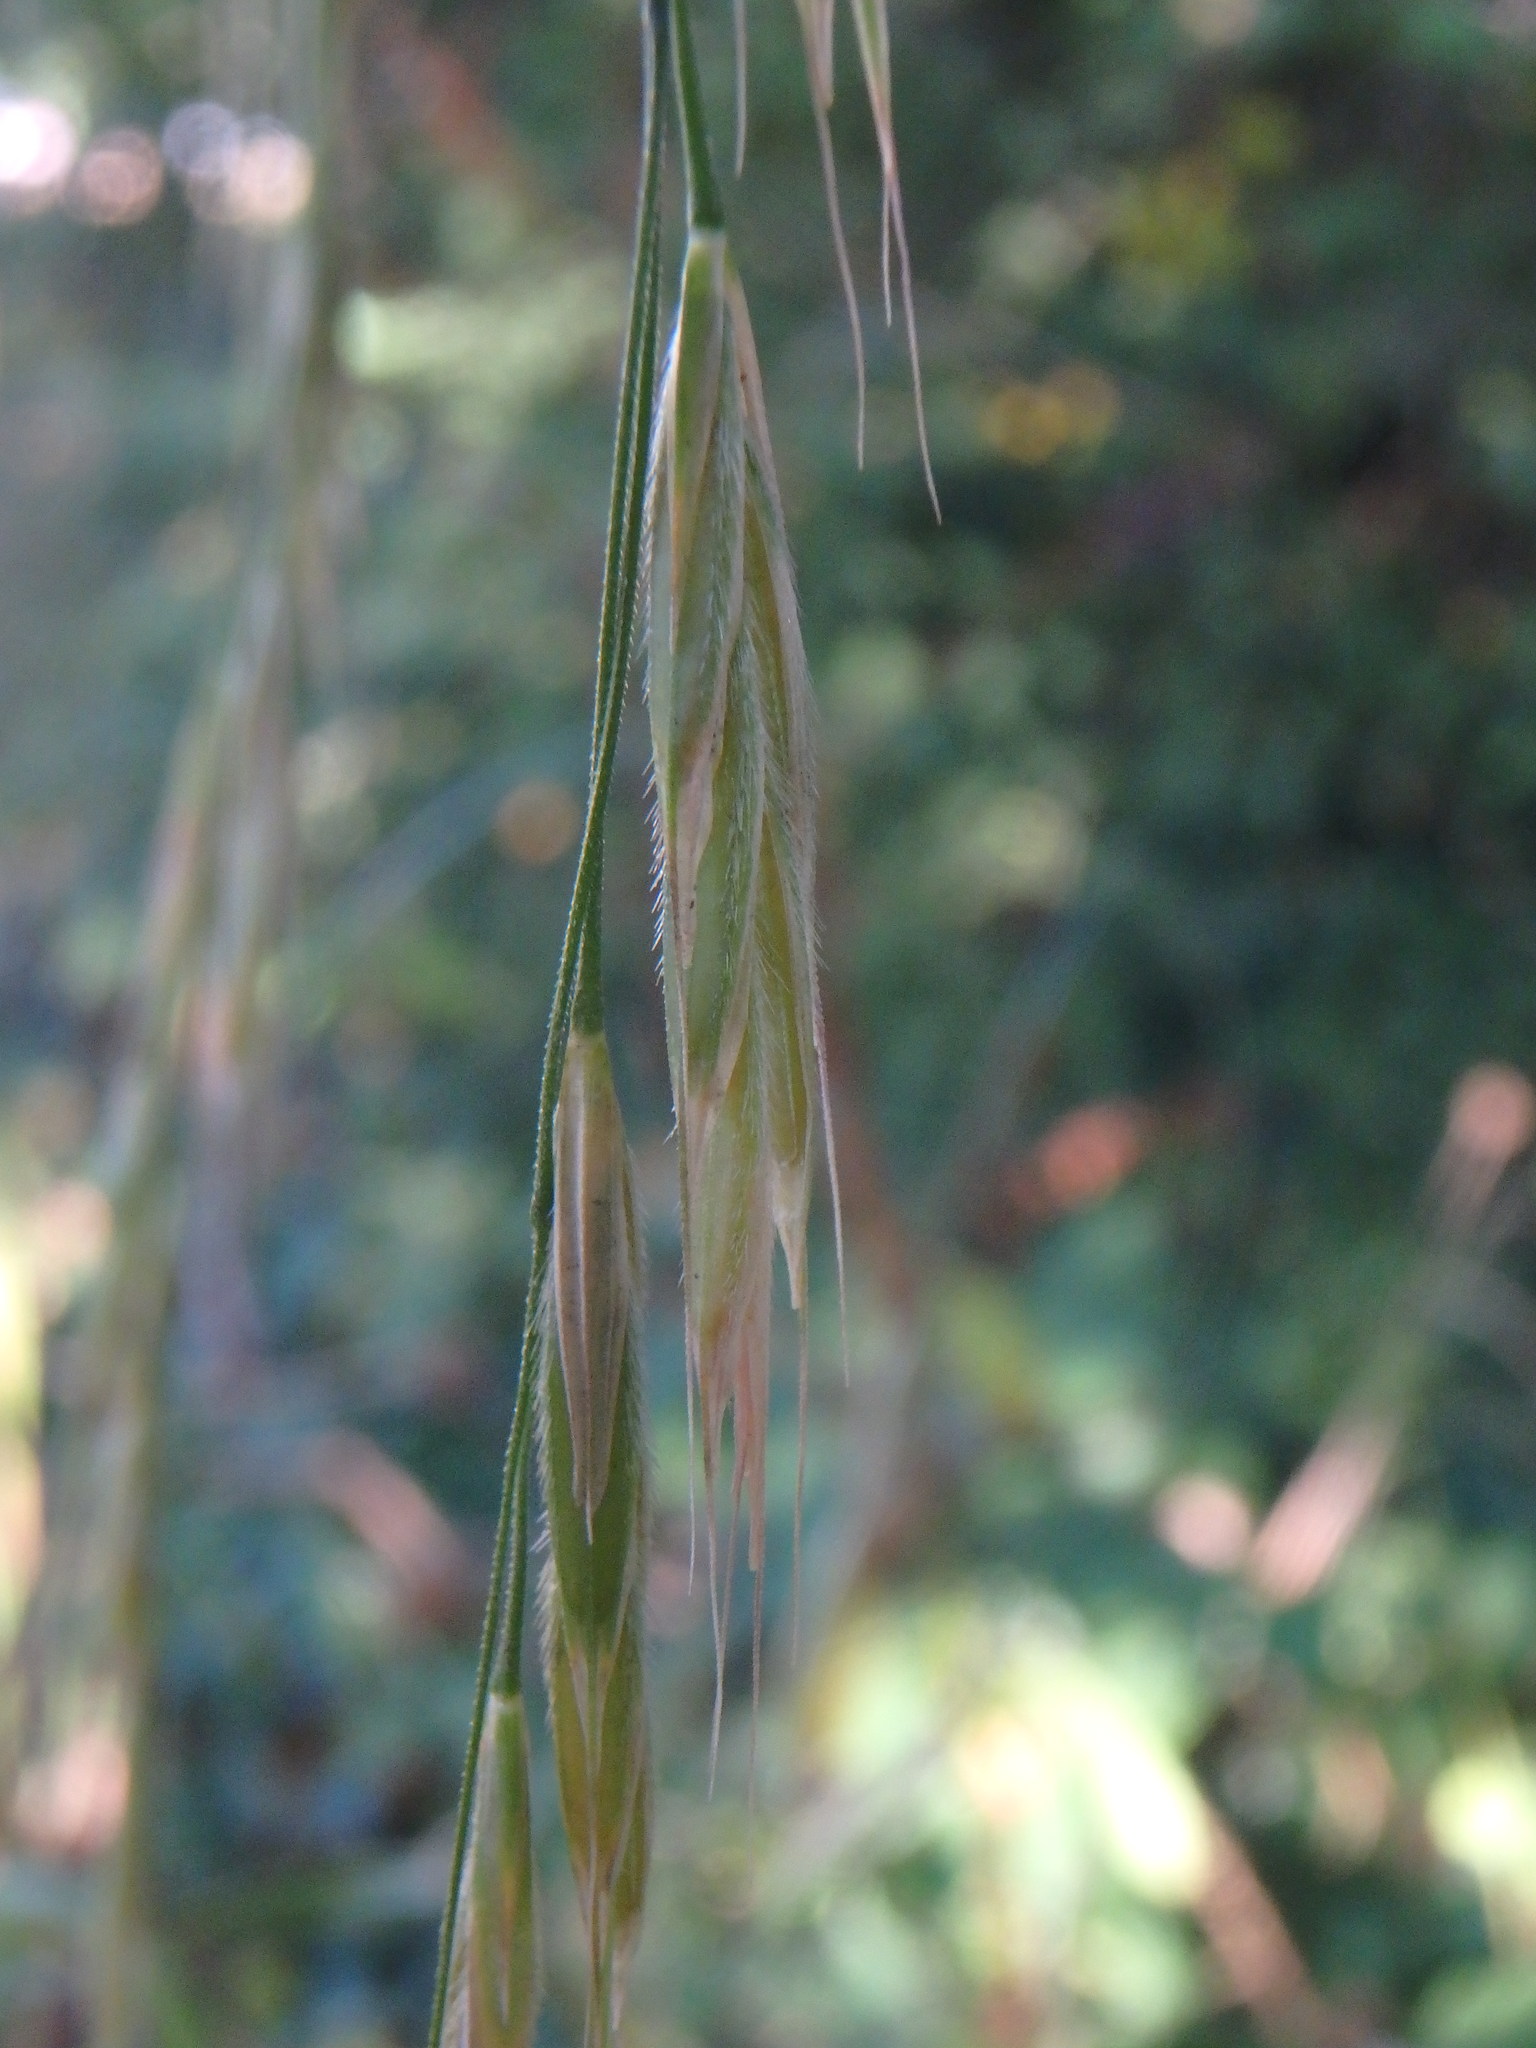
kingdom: Plantae
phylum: Tracheophyta
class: Liliopsida
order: Poales
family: Poaceae
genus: Bromus
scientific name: Bromus ramosus
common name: Hairy brome
